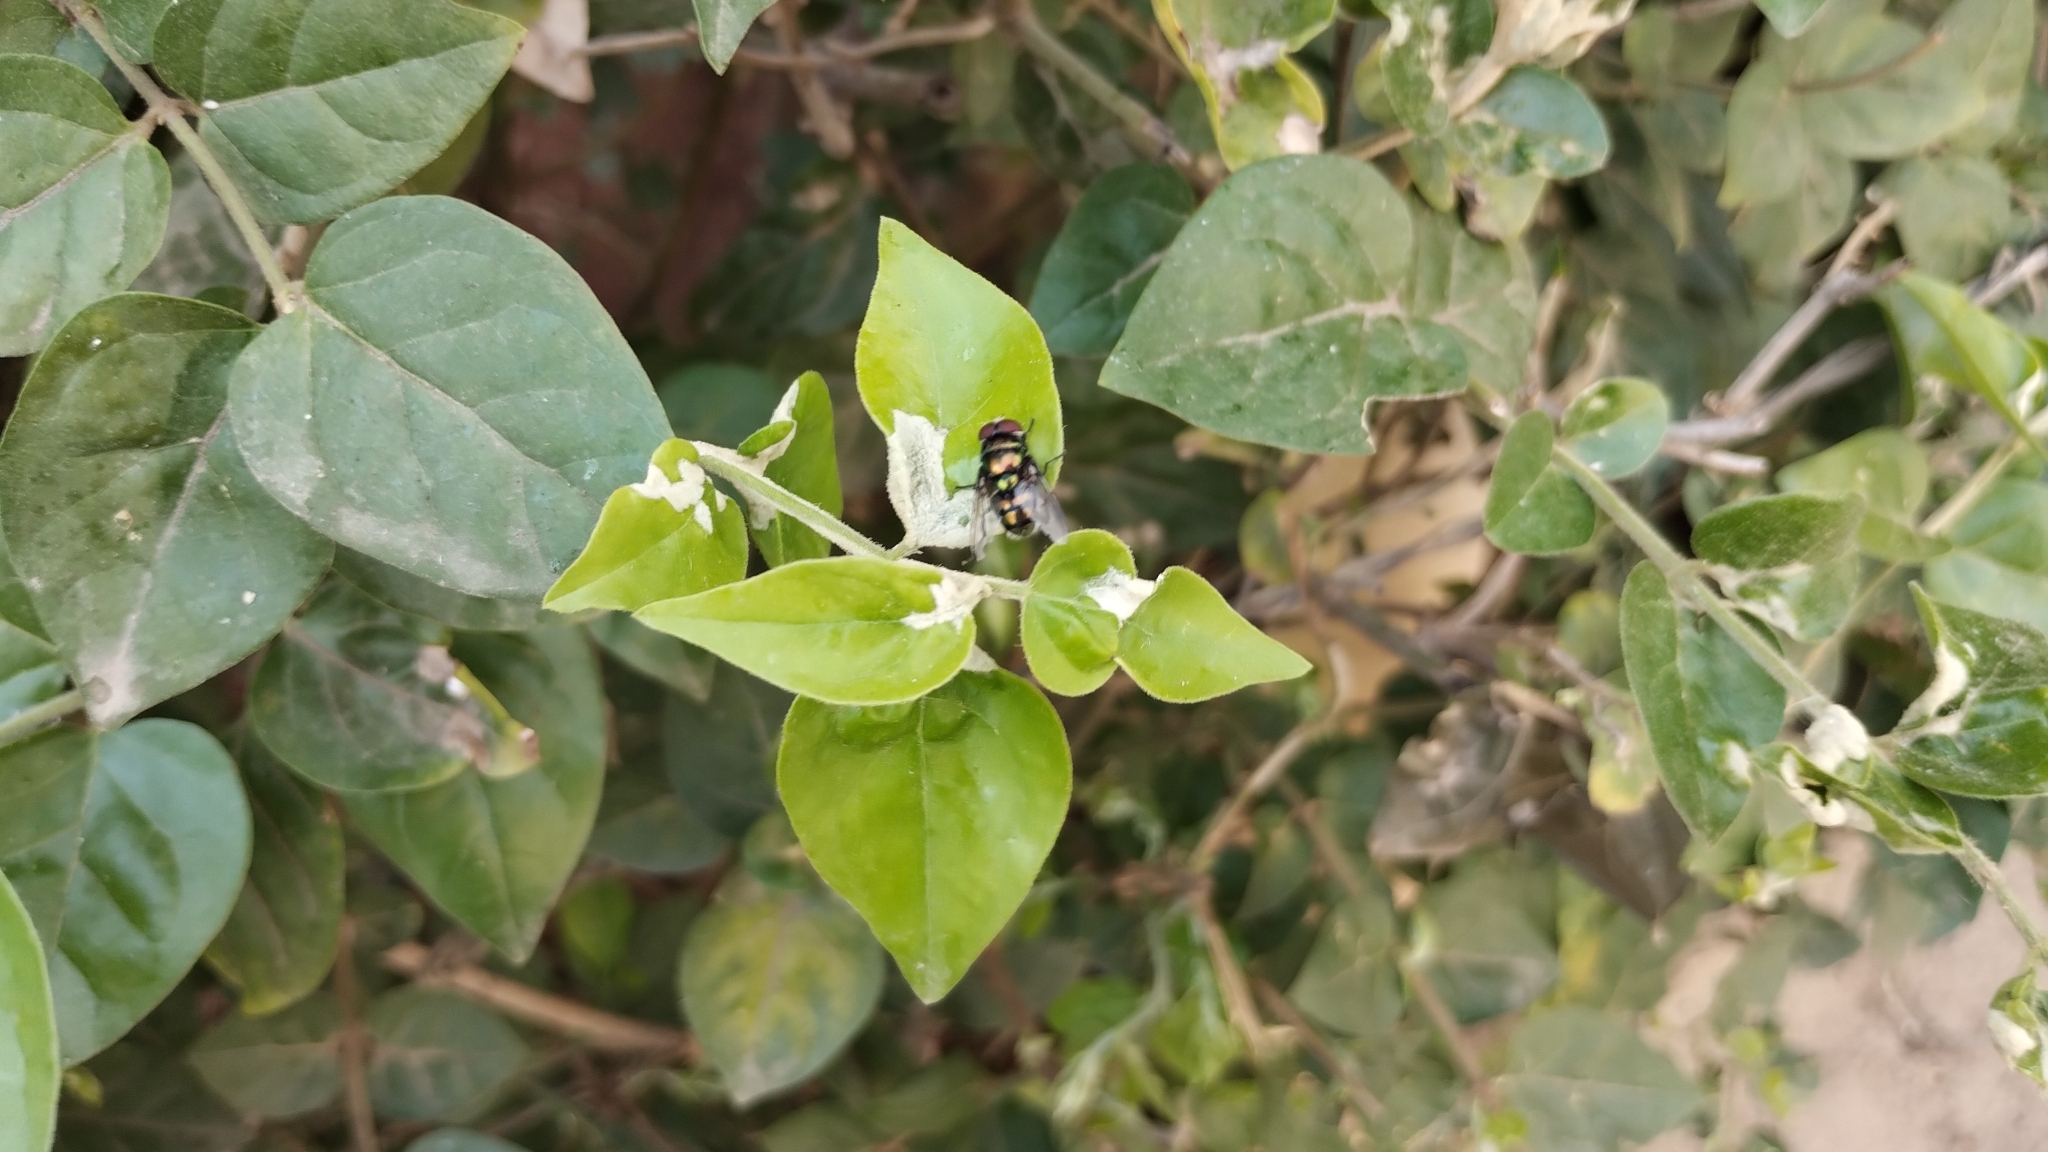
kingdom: Animalia
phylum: Arthropoda
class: Insecta
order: Diptera
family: Calliphoridae
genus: Chrysomya
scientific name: Chrysomya megacephala
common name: Blow fly
